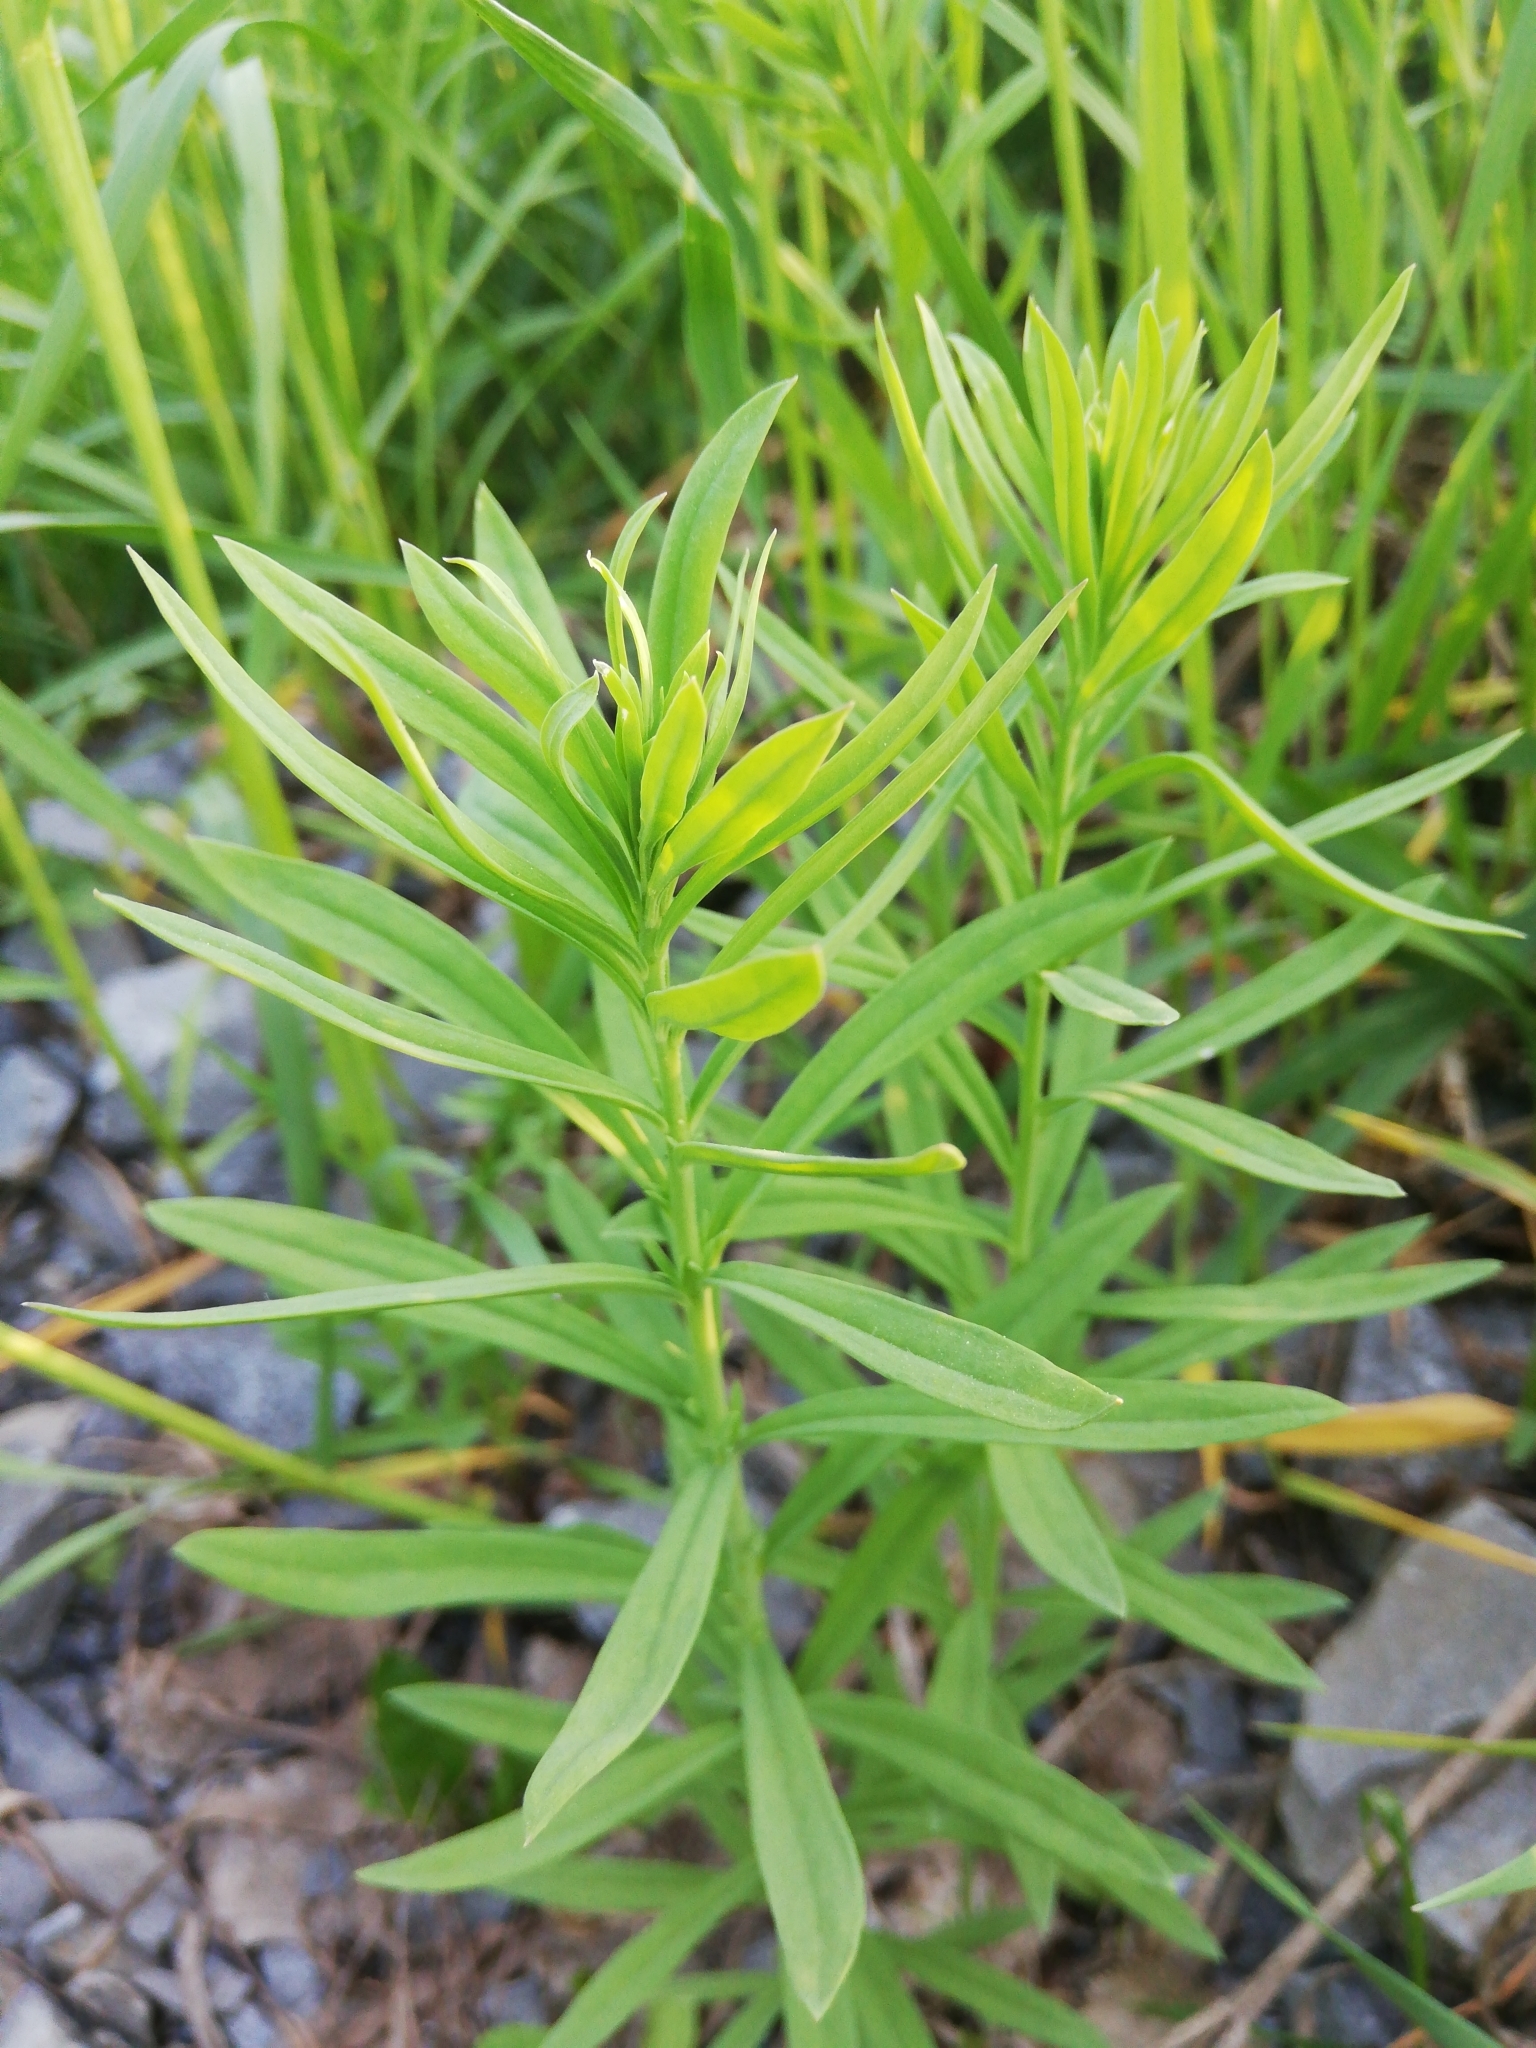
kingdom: Plantae
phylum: Tracheophyta
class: Magnoliopsida
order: Lamiales
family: Plantaginaceae
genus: Linaria
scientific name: Linaria vulgaris
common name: Butter and eggs
